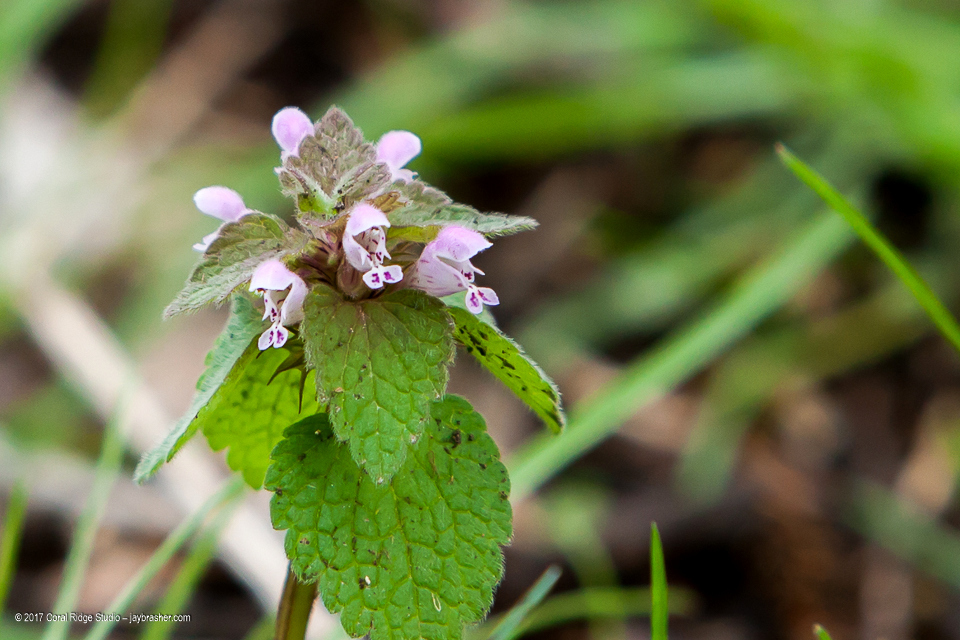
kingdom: Plantae
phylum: Tracheophyta
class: Magnoliopsida
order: Lamiales
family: Lamiaceae
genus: Lamium
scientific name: Lamium purpureum
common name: Red dead-nettle
